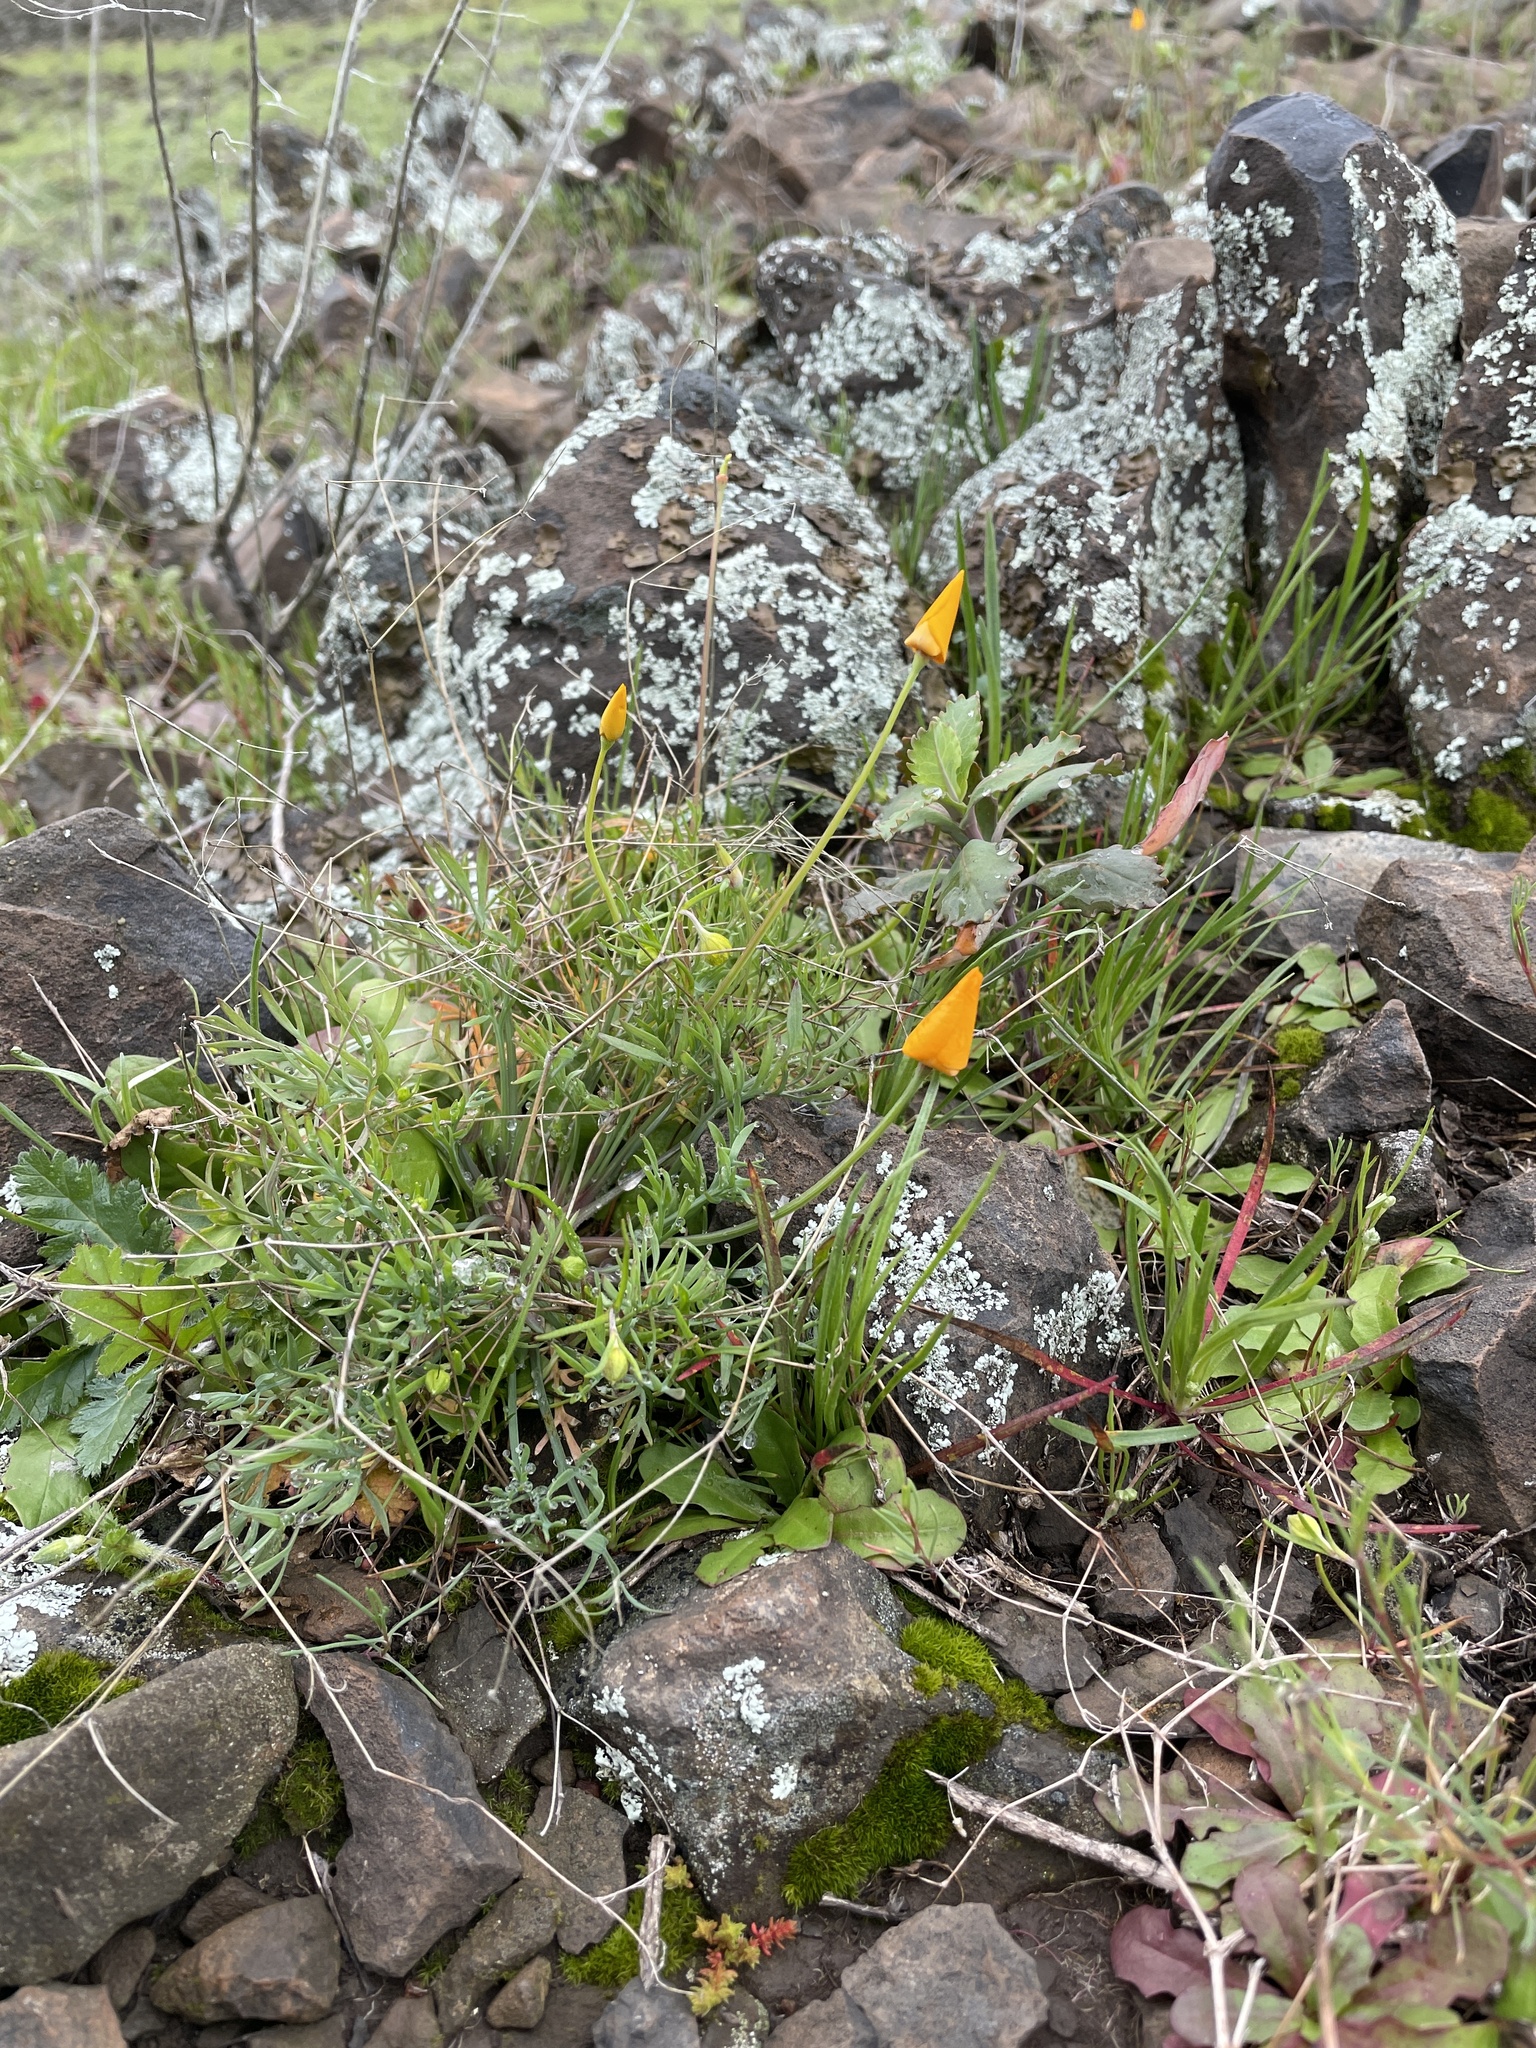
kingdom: Plantae
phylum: Tracheophyta
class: Magnoliopsida
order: Ranunculales
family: Papaveraceae
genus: Eschscholzia
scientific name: Eschscholzia lobbii
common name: Frying-pans
